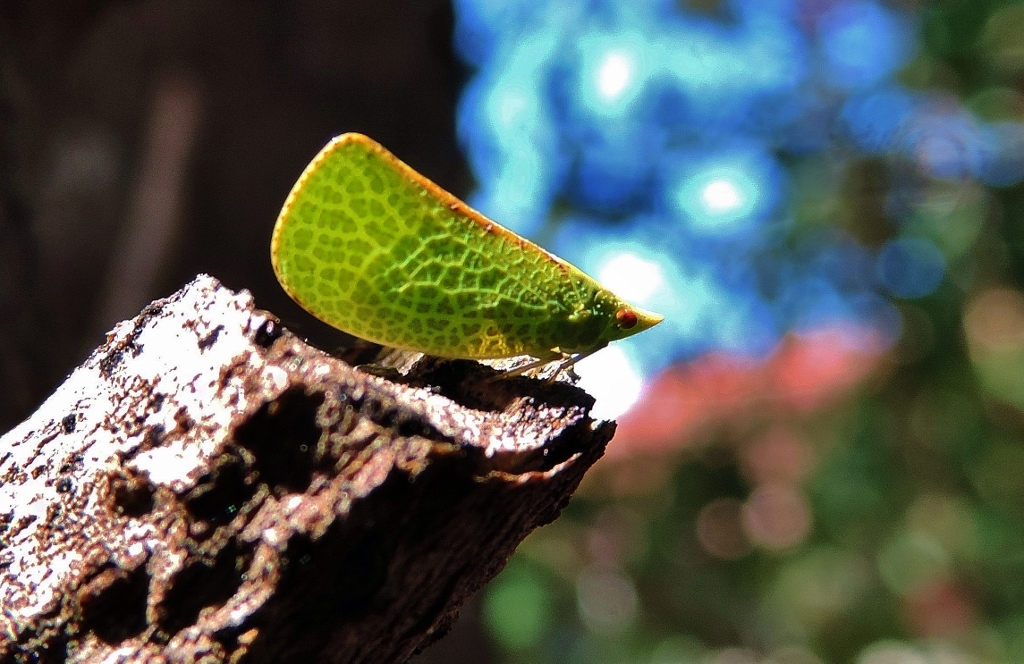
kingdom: Animalia
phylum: Arthropoda
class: Insecta
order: Hemiptera
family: Tropiduchidae
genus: Parathiscia
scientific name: Parathiscia truncatella
